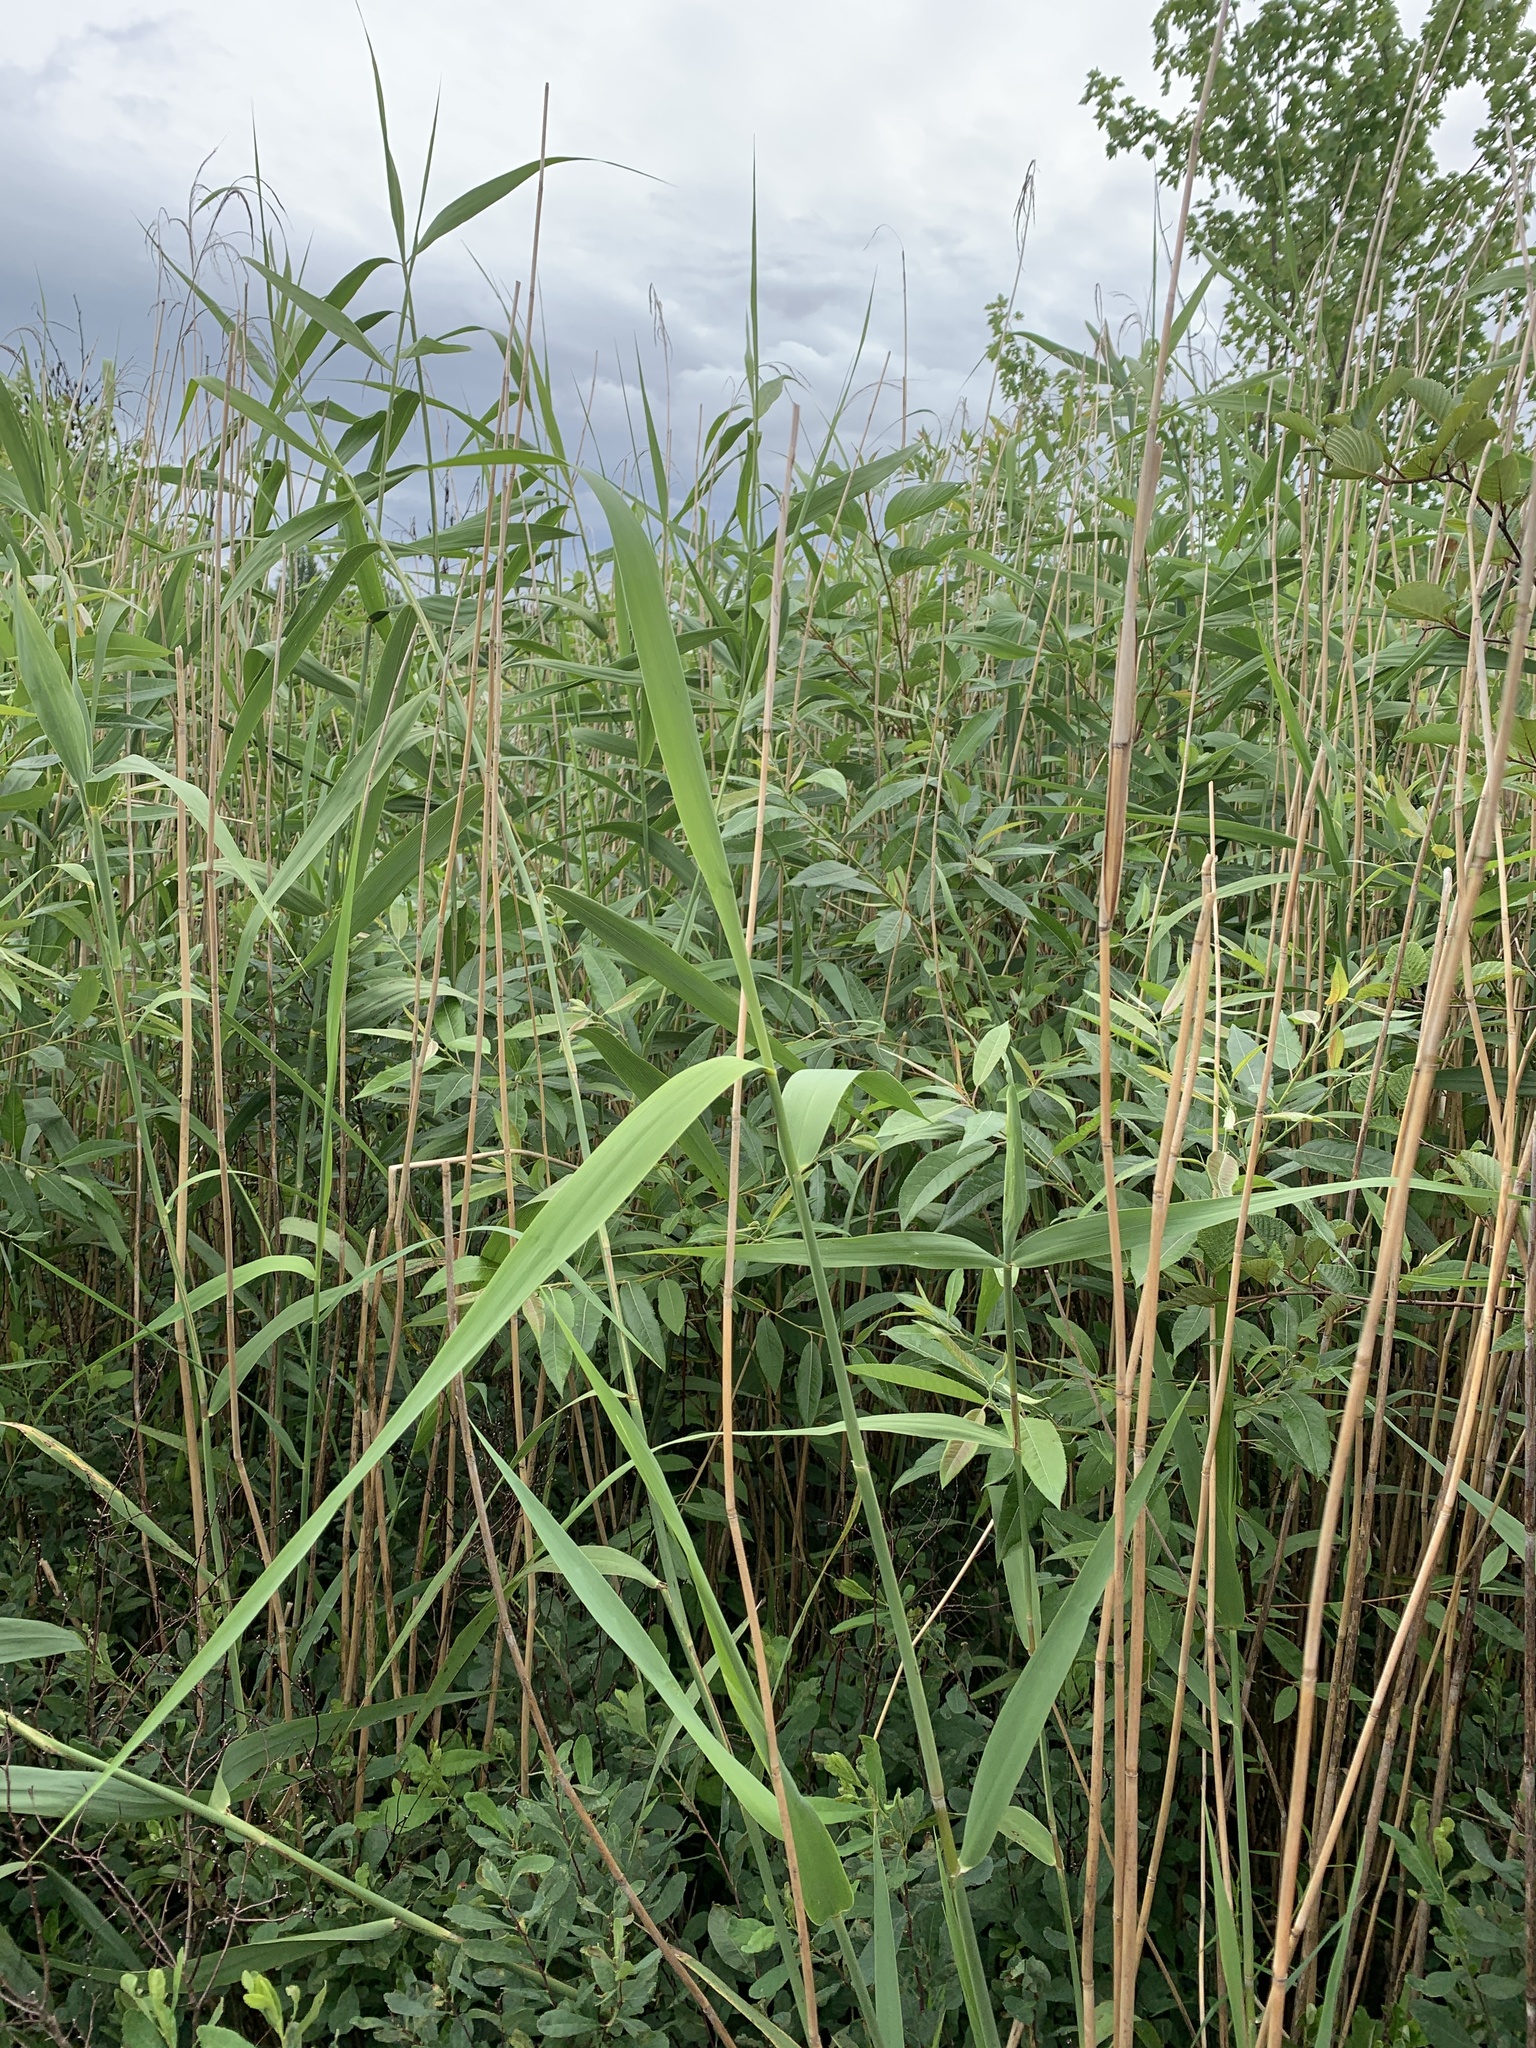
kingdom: Plantae
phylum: Tracheophyta
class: Liliopsida
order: Poales
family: Poaceae
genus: Phragmites
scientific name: Phragmites australis
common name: Common reed
